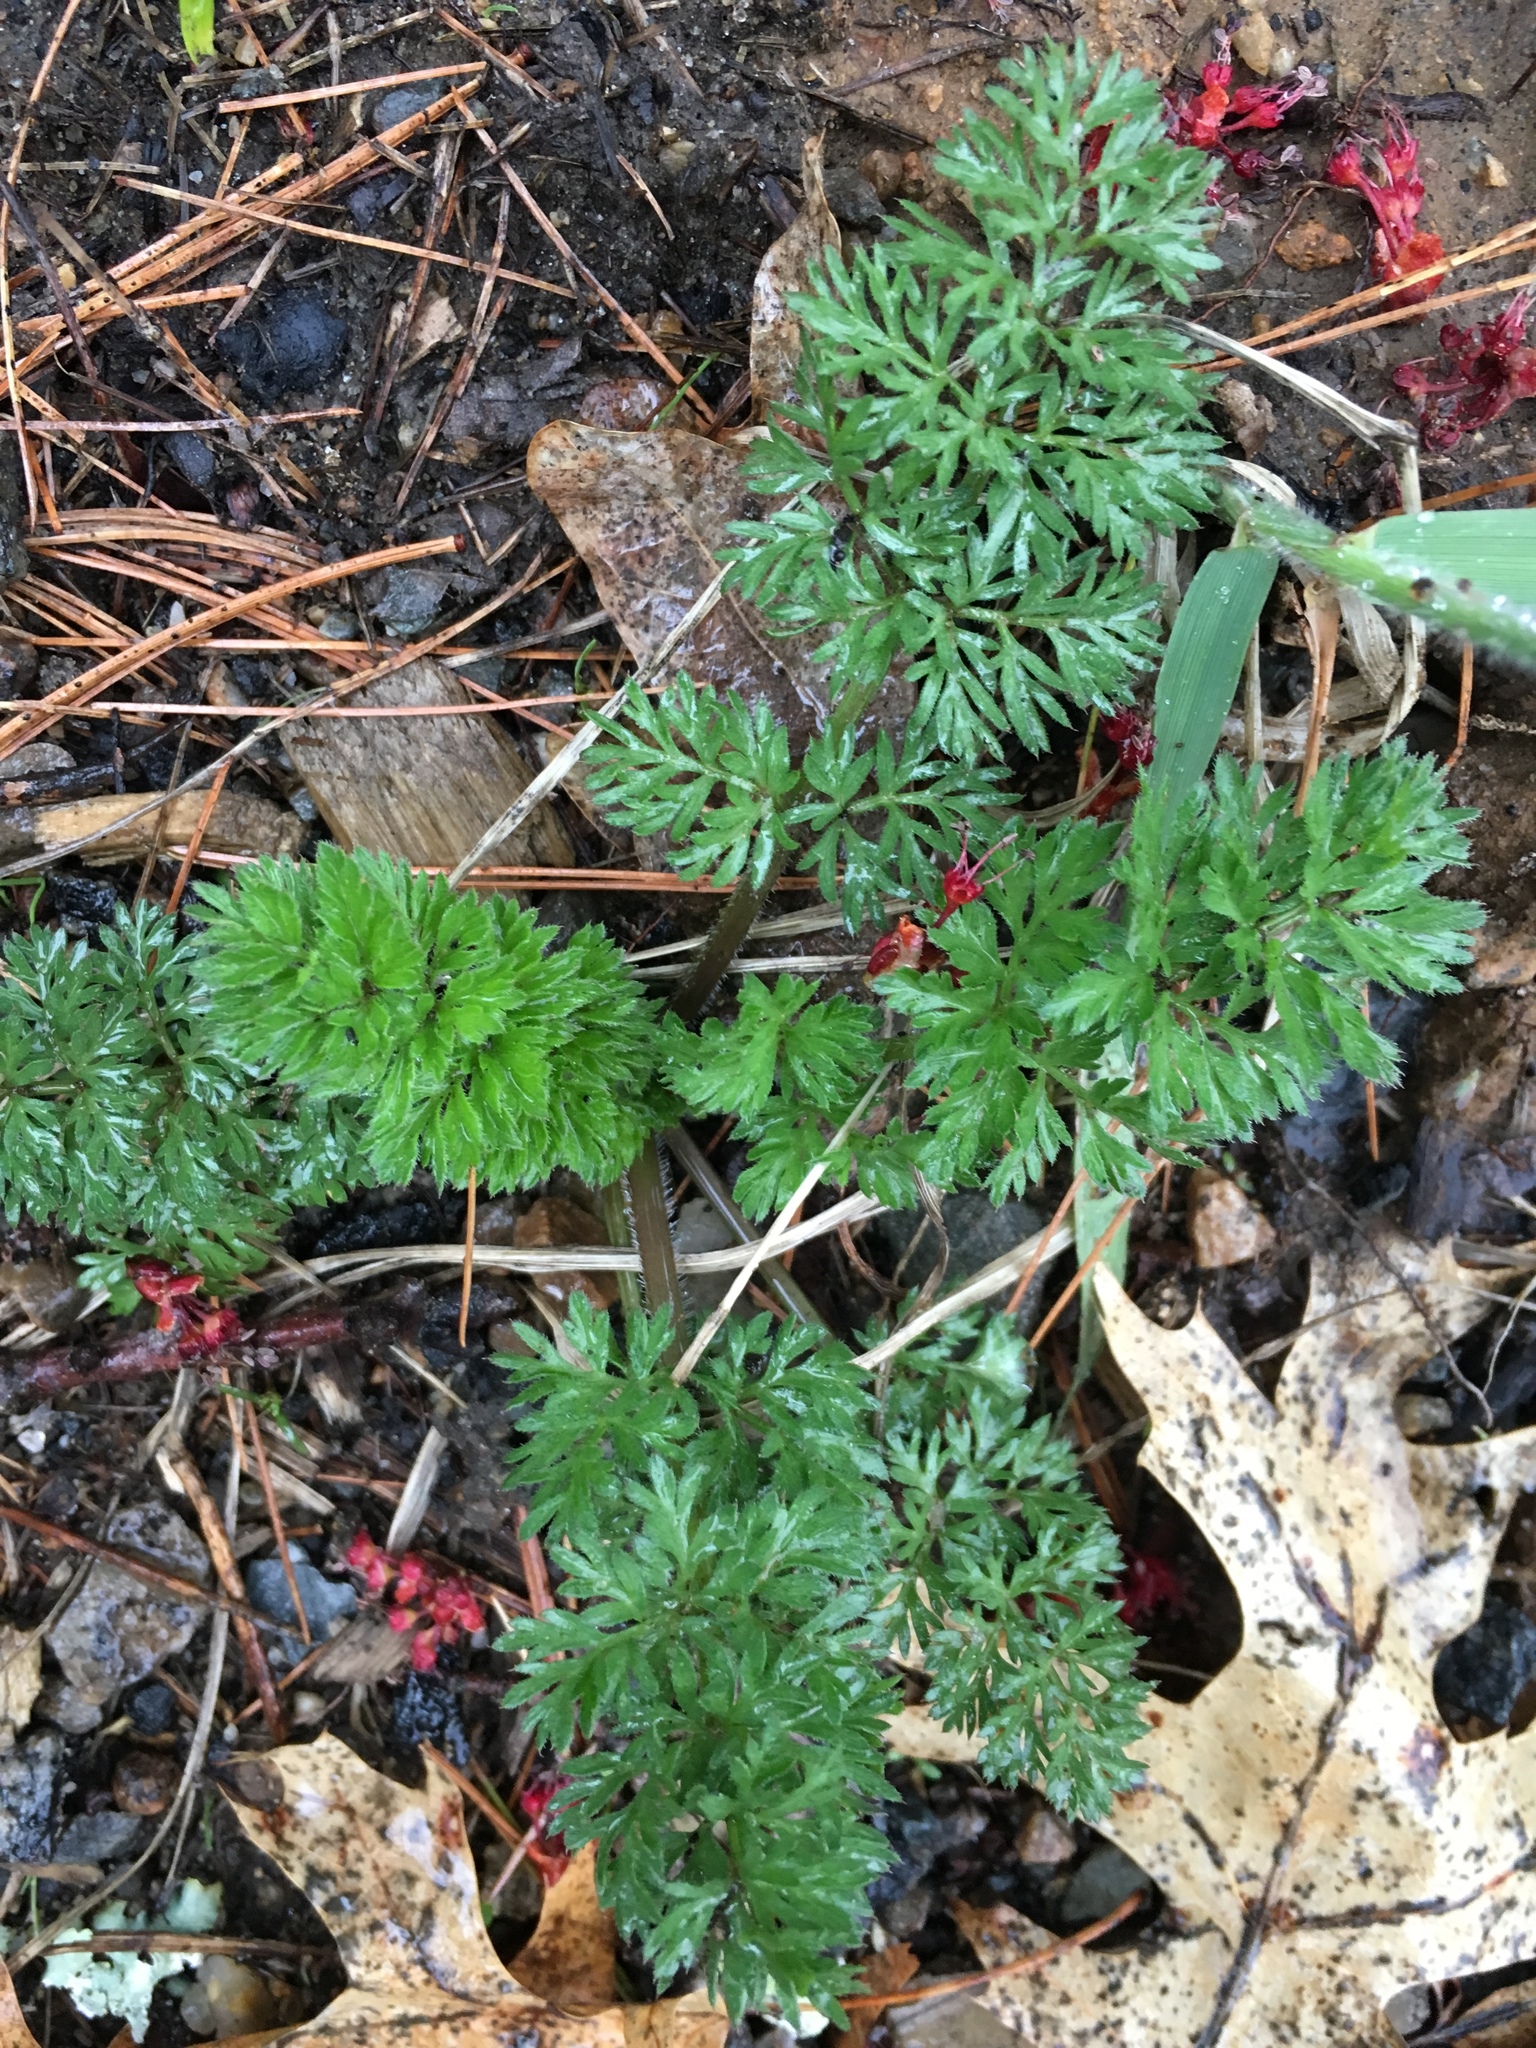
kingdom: Plantae
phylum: Tracheophyta
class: Magnoliopsida
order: Apiales
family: Apiaceae
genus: Daucus
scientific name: Daucus carota
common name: Wild carrot
